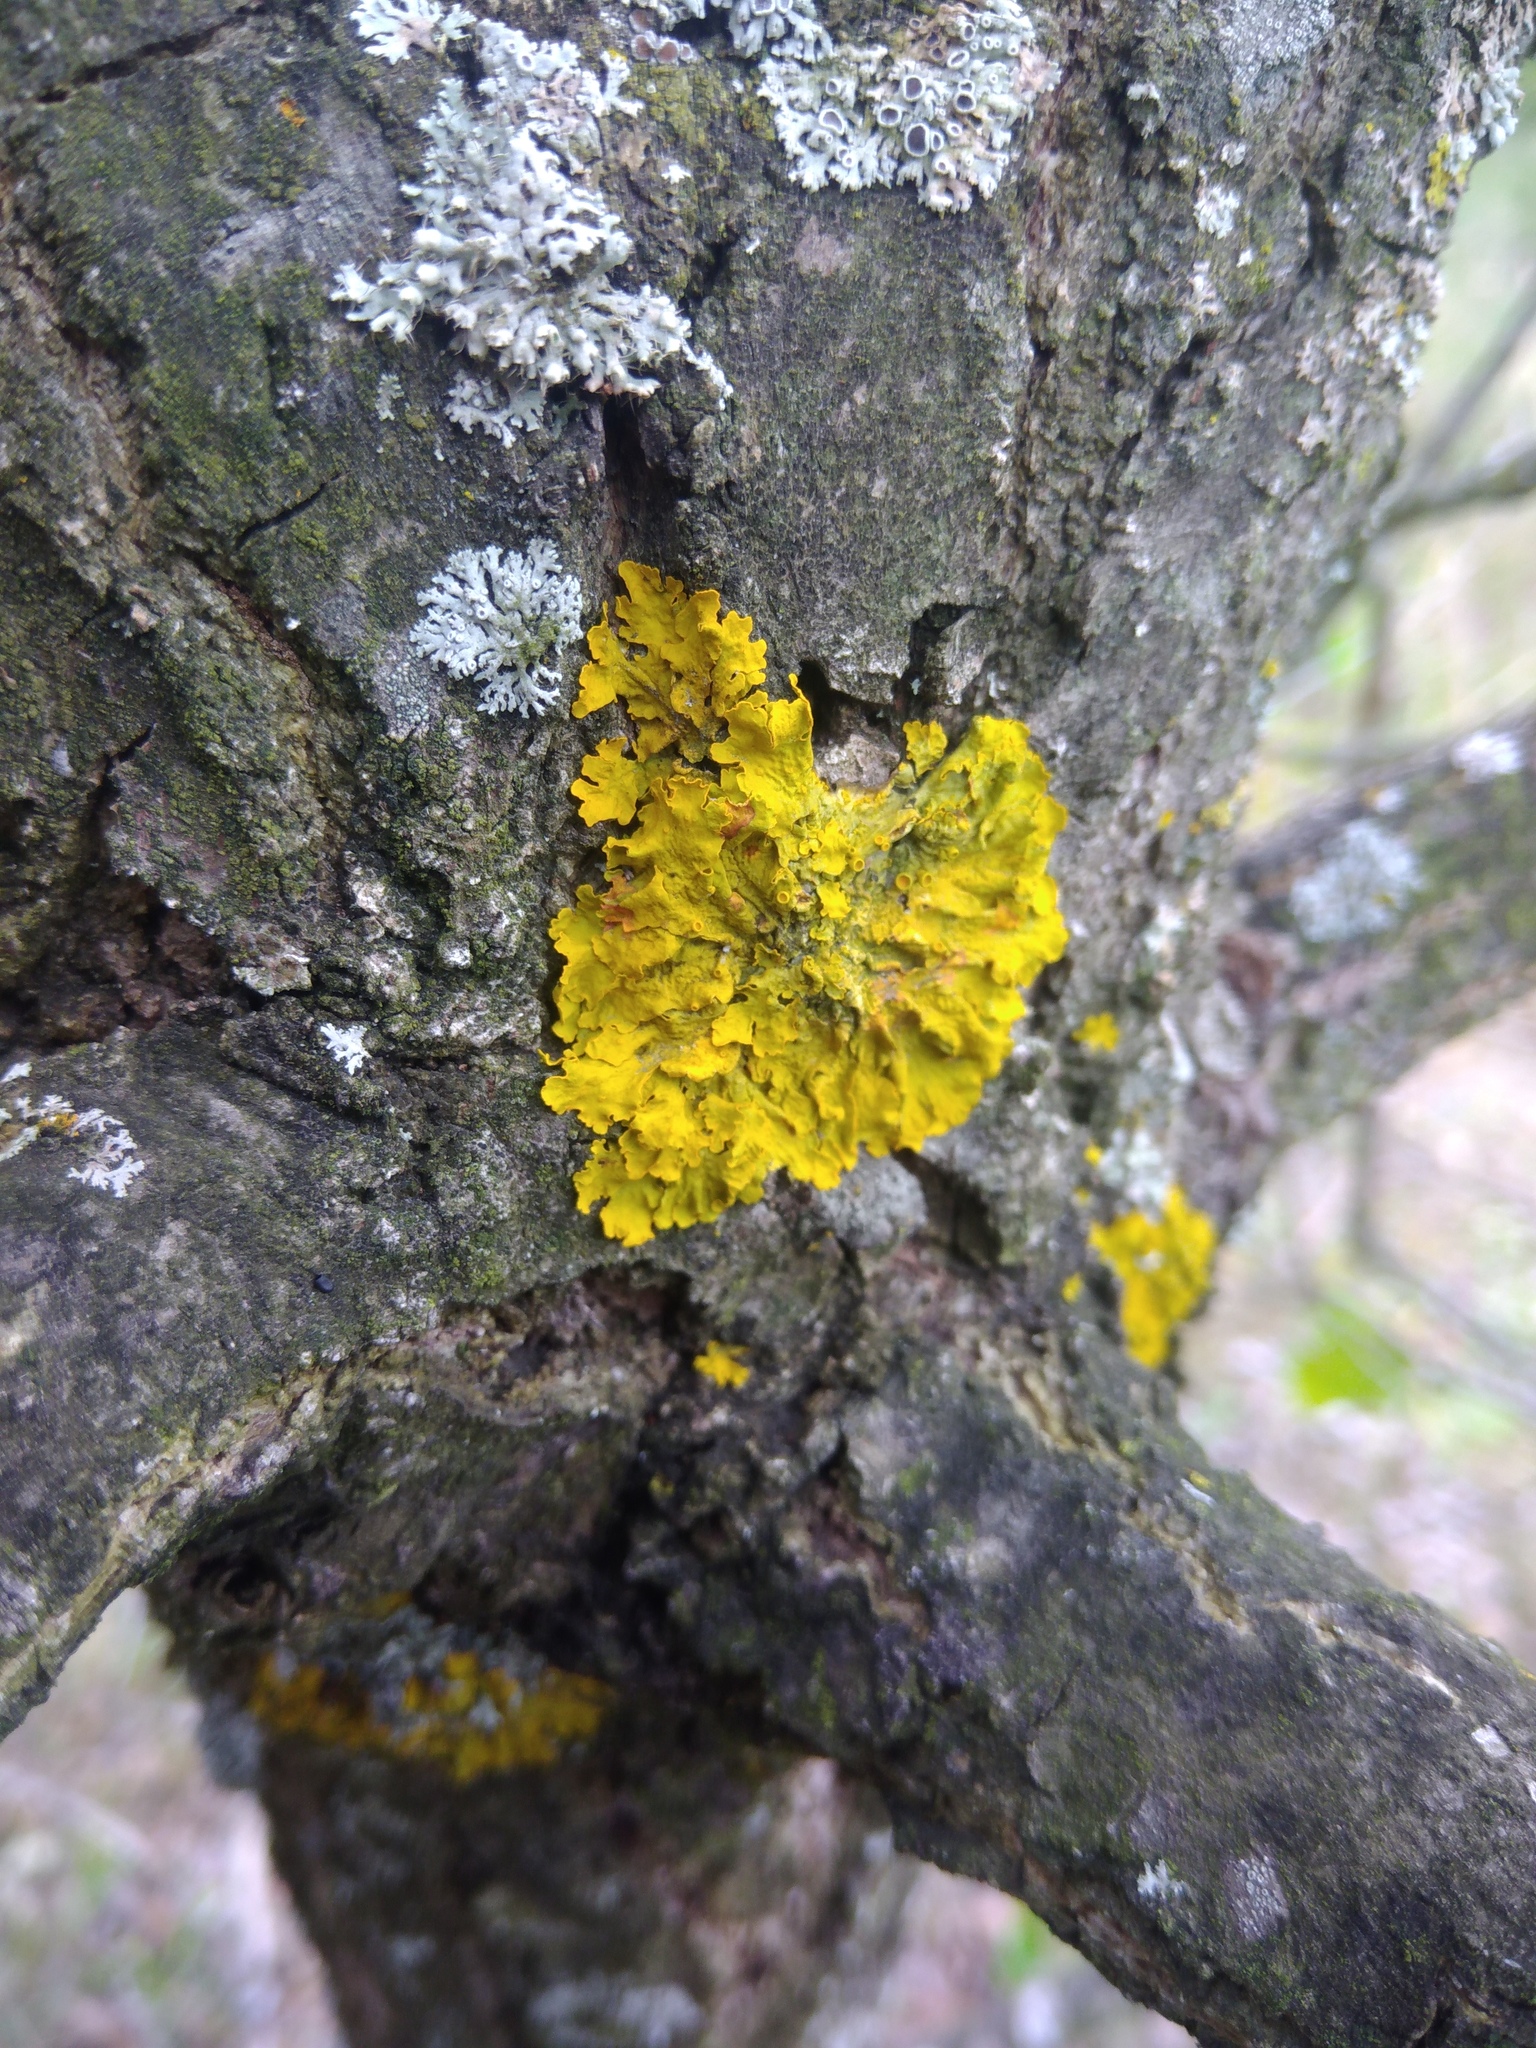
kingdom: Fungi
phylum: Ascomycota
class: Lecanoromycetes
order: Teloschistales
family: Teloschistaceae
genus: Xanthoria
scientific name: Xanthoria parietina
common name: Common orange lichen
